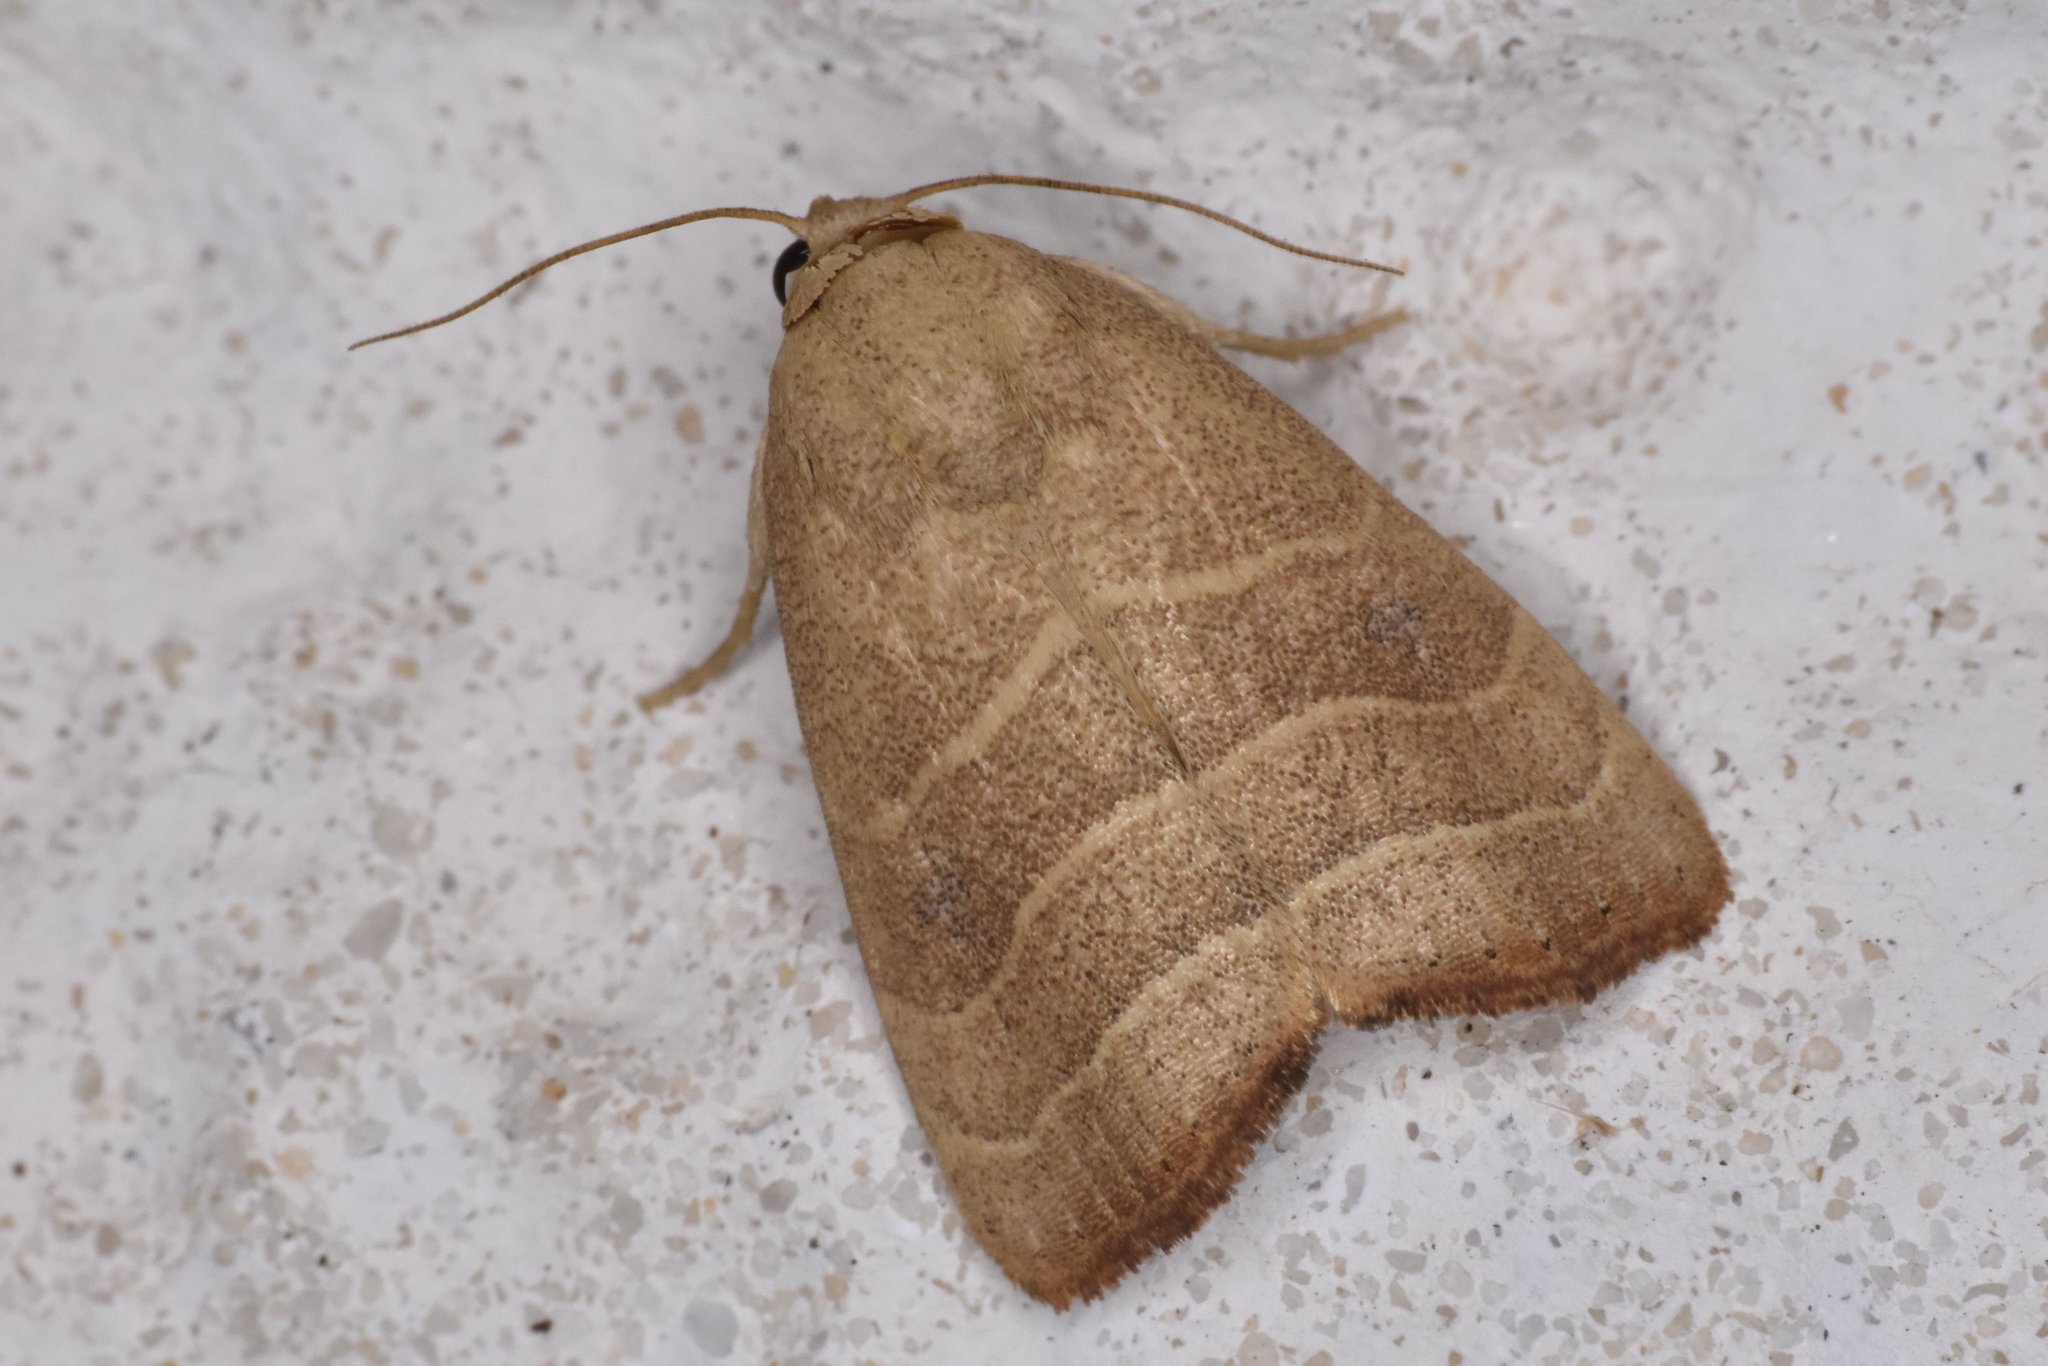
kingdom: Animalia
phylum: Arthropoda
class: Insecta
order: Lepidoptera
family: Noctuidae
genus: Bagisara
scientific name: Bagisara repanda
